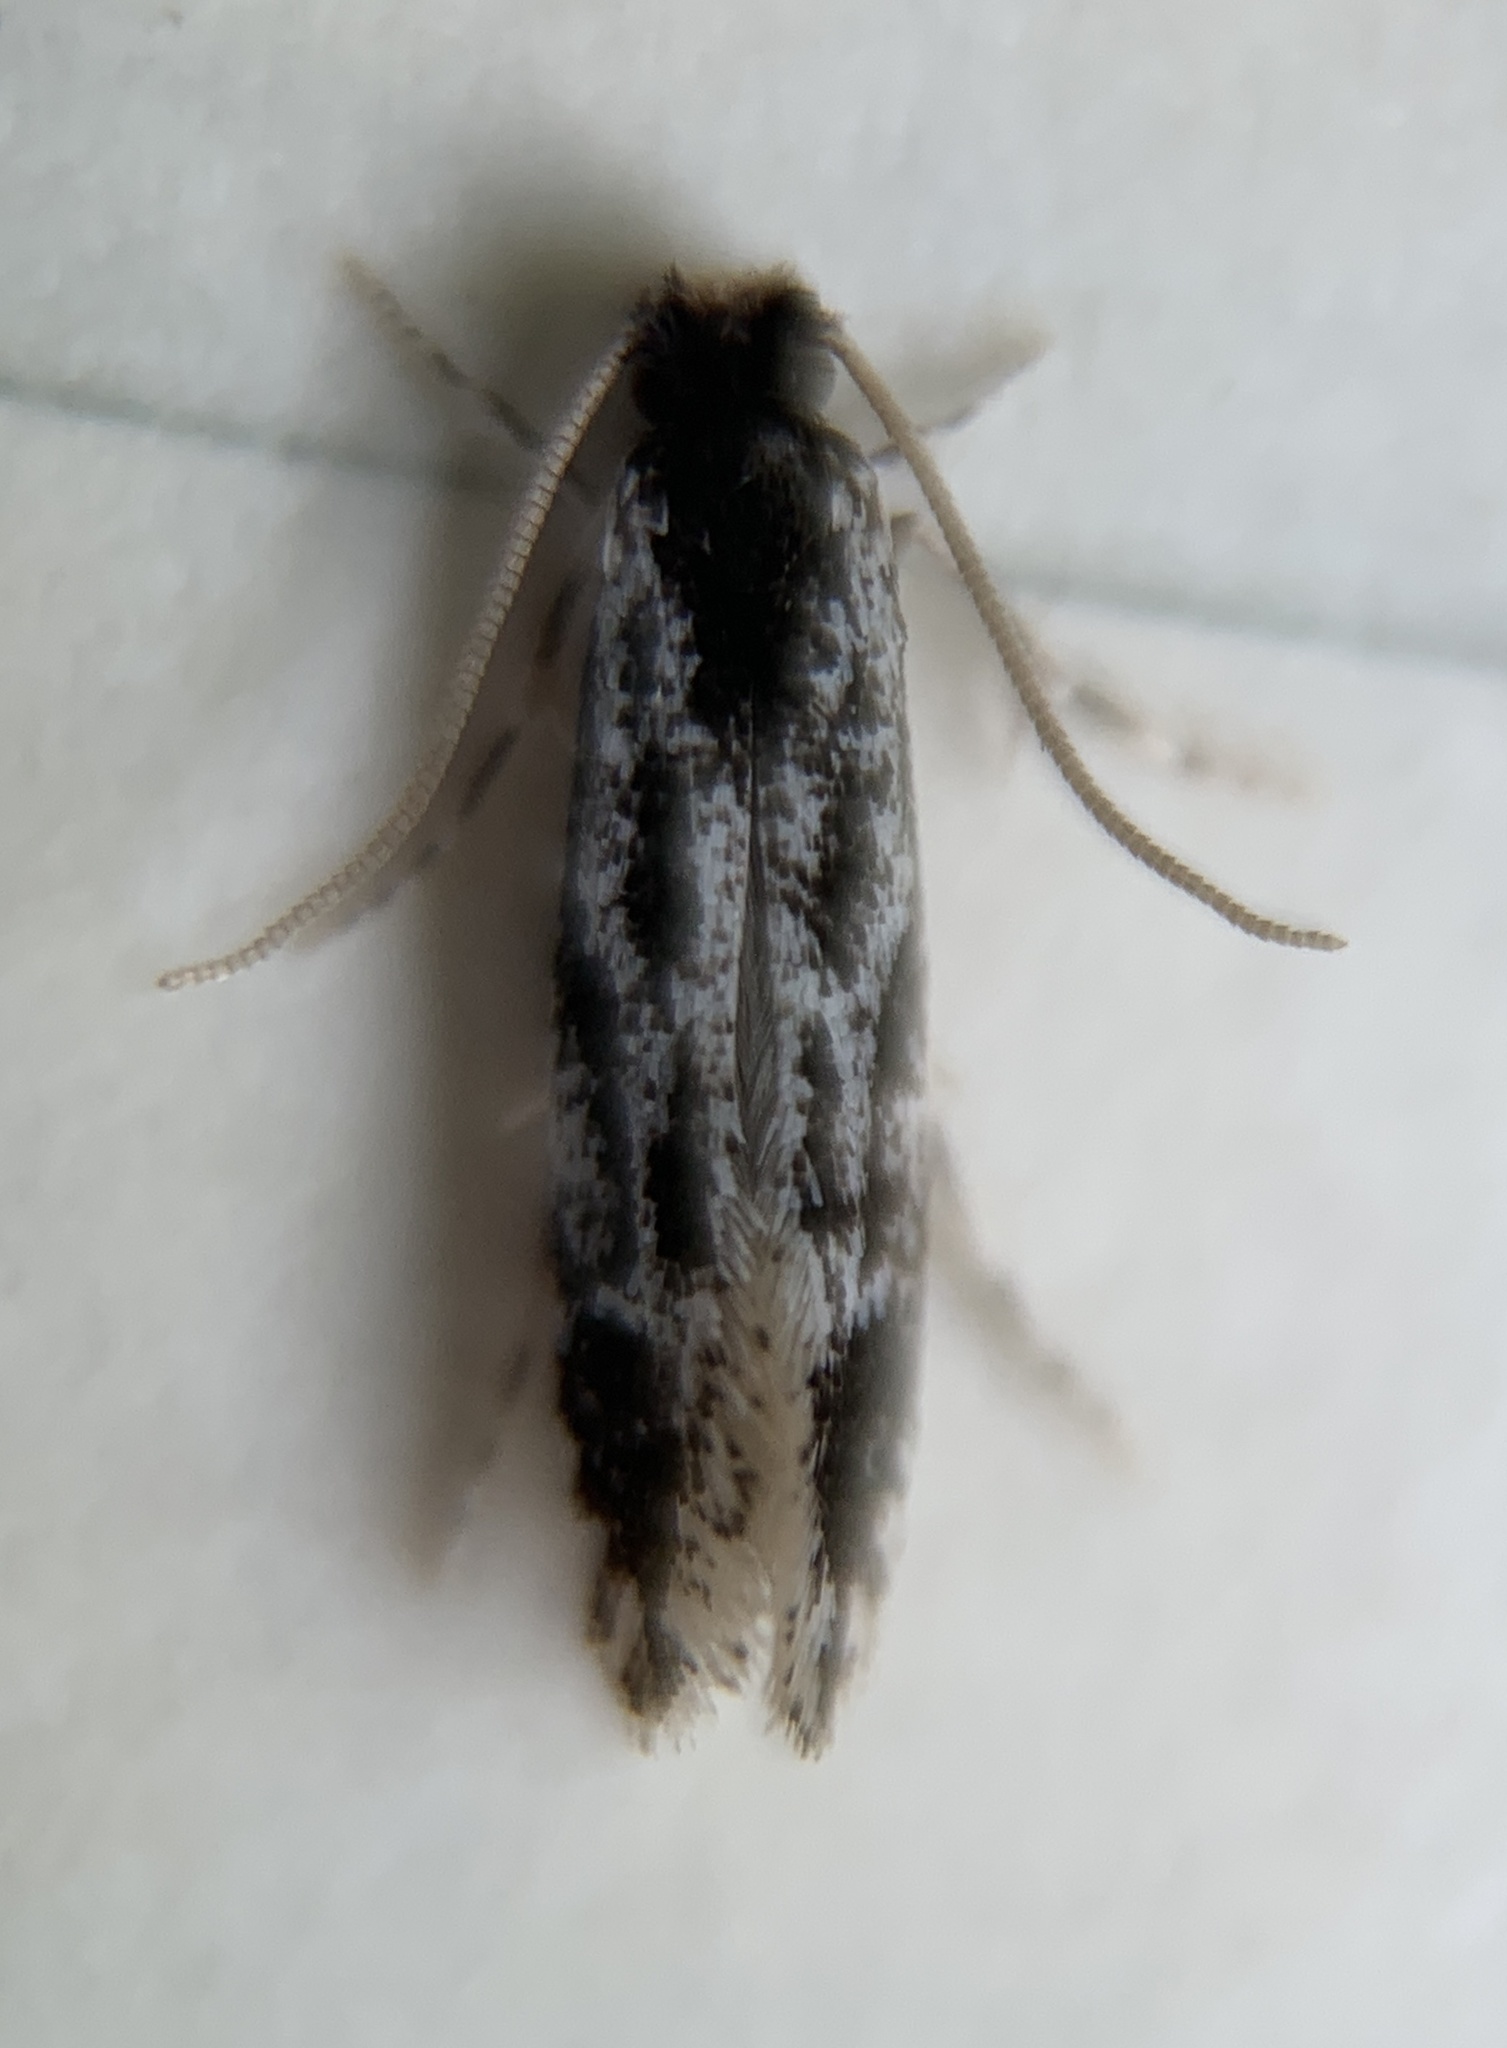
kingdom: Animalia
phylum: Arthropoda
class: Insecta
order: Lepidoptera
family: Meessiidae
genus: Leucomele
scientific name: Leucomele miriamella
